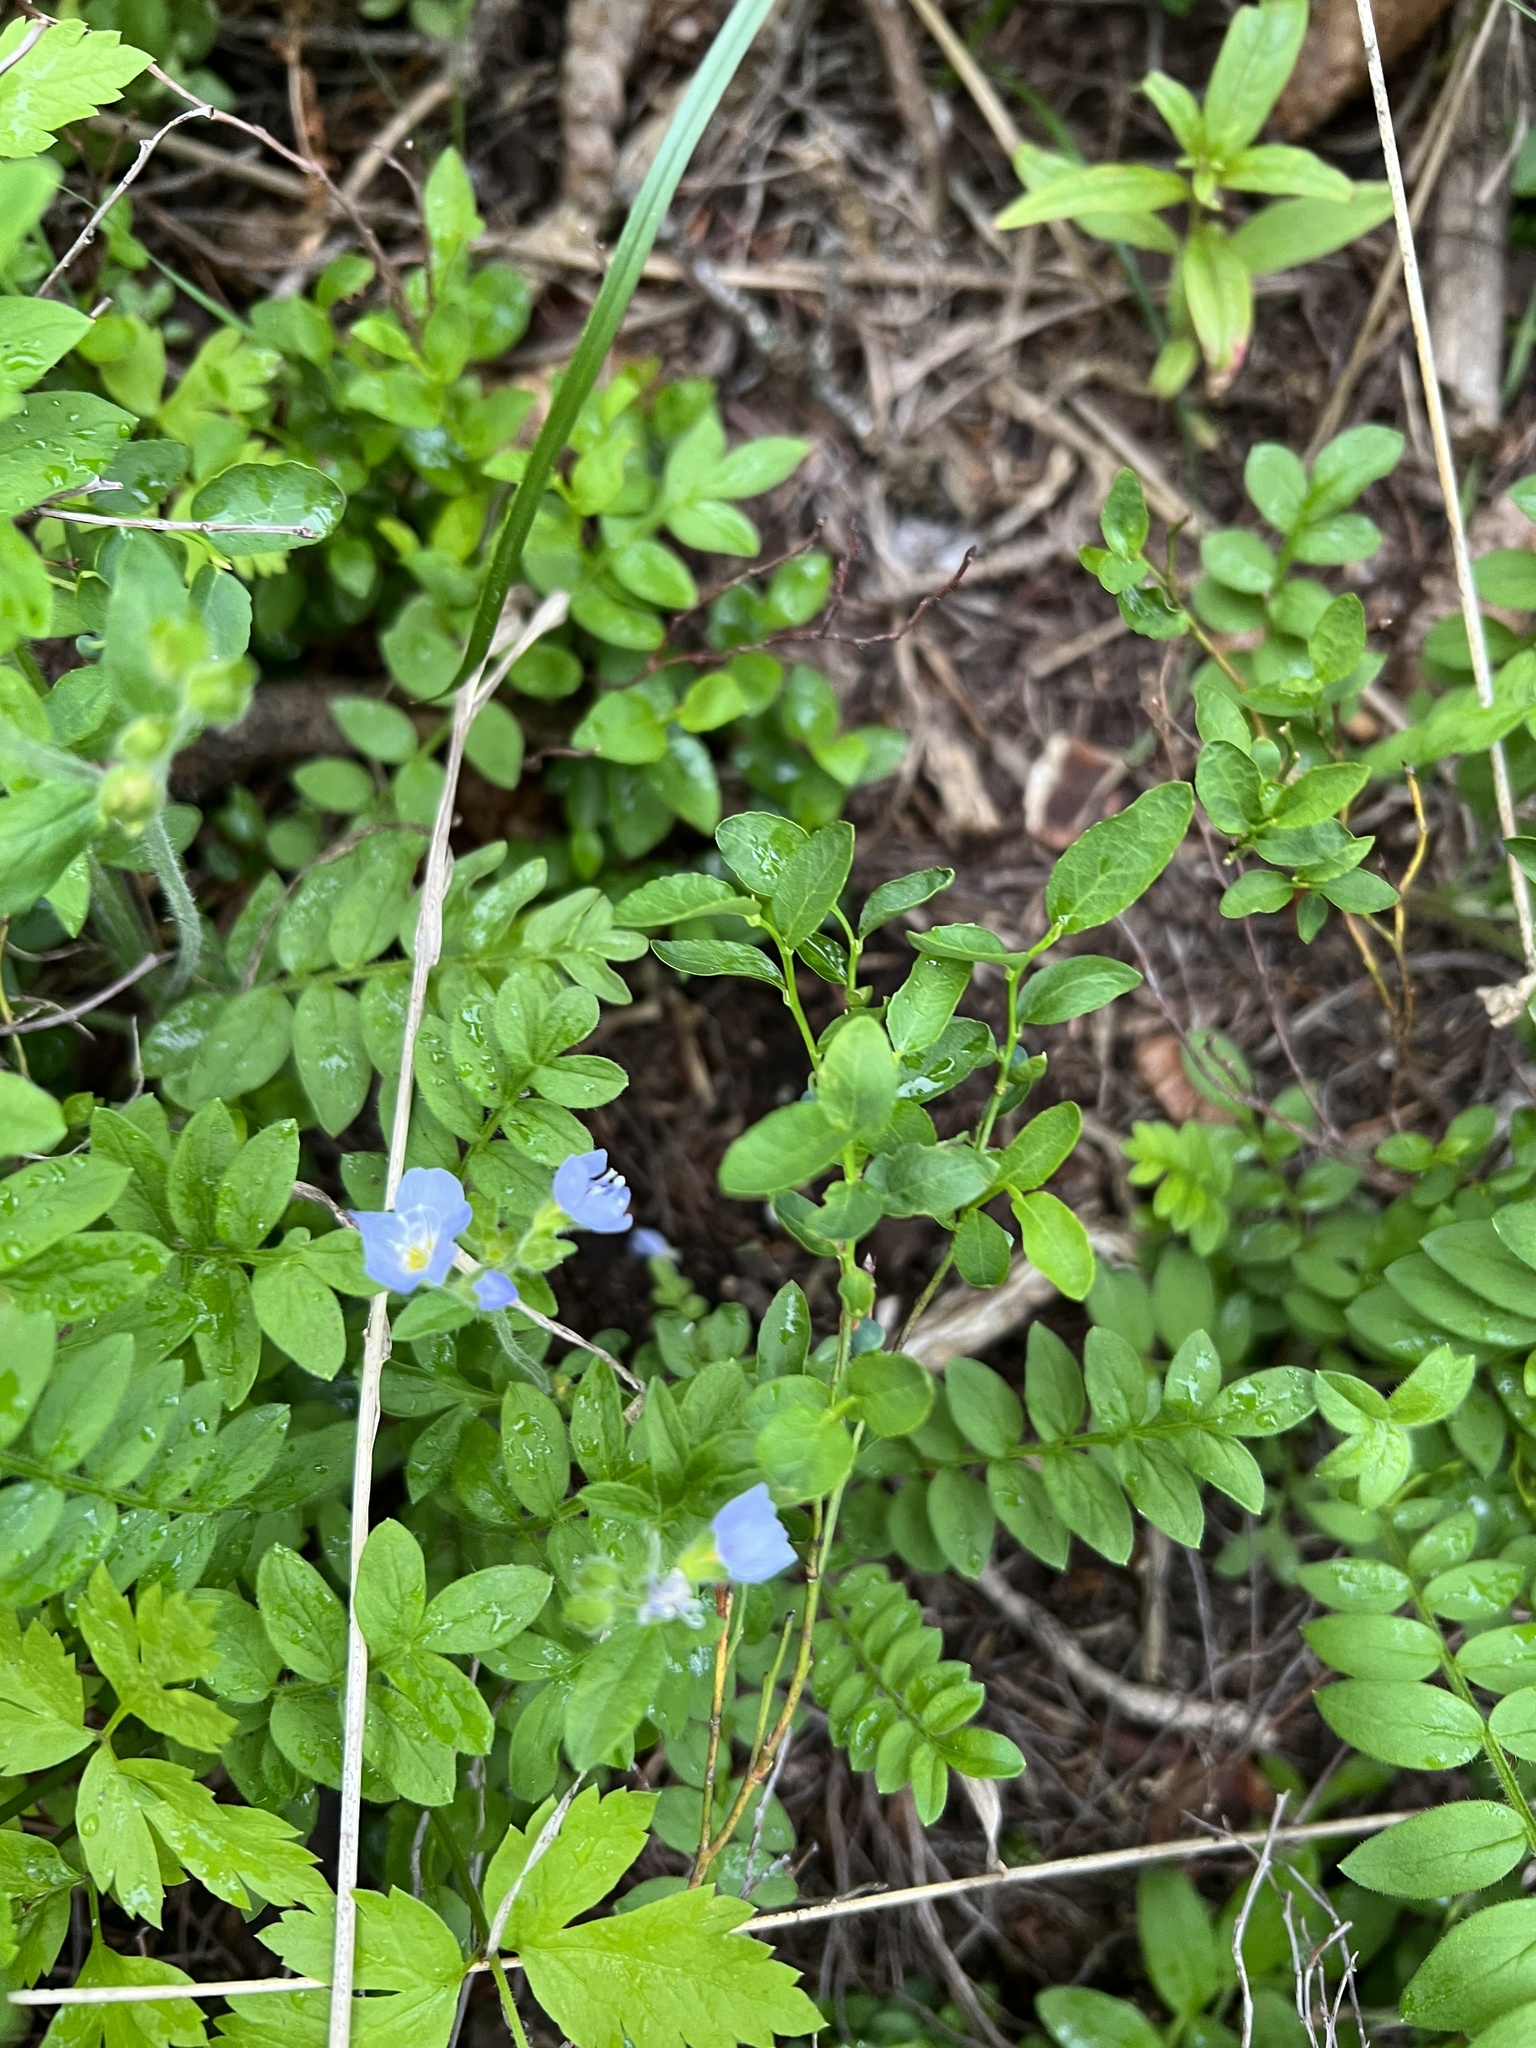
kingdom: Plantae
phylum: Tracheophyta
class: Magnoliopsida
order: Ericales
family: Polemoniaceae
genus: Polemonium
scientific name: Polemonium pulcherrimum
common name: Short jacob's-ladder
